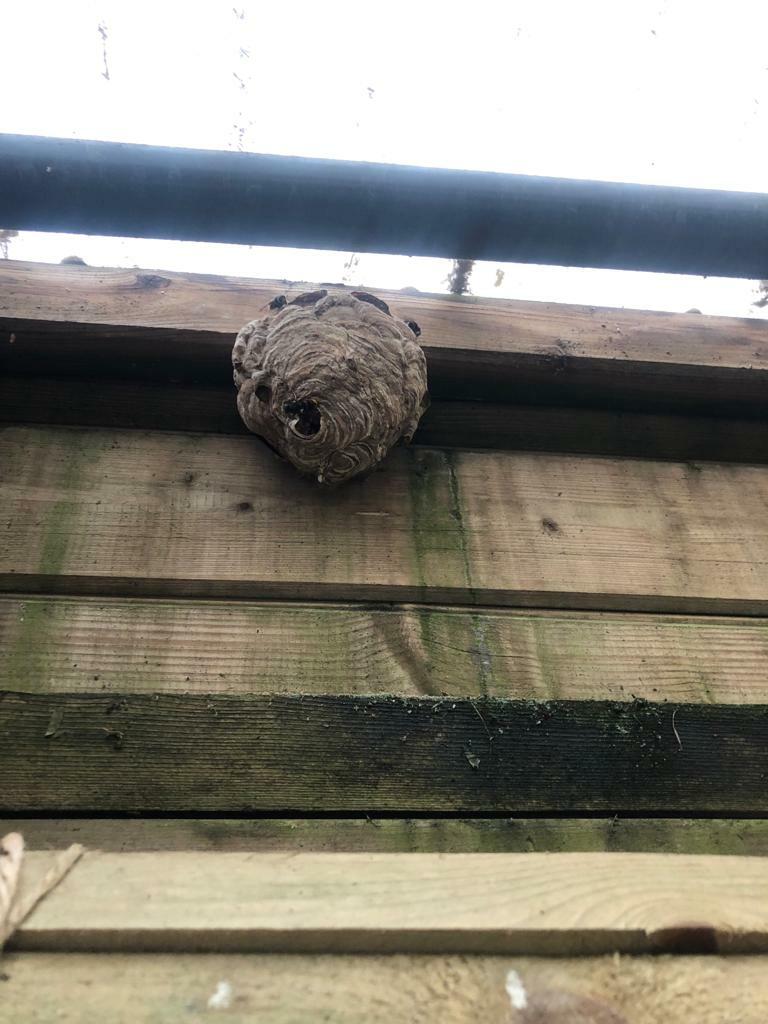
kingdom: Animalia
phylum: Arthropoda
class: Insecta
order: Hymenoptera
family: Vespidae
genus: Vespa
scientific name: Vespa velutina
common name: Asian hornet
